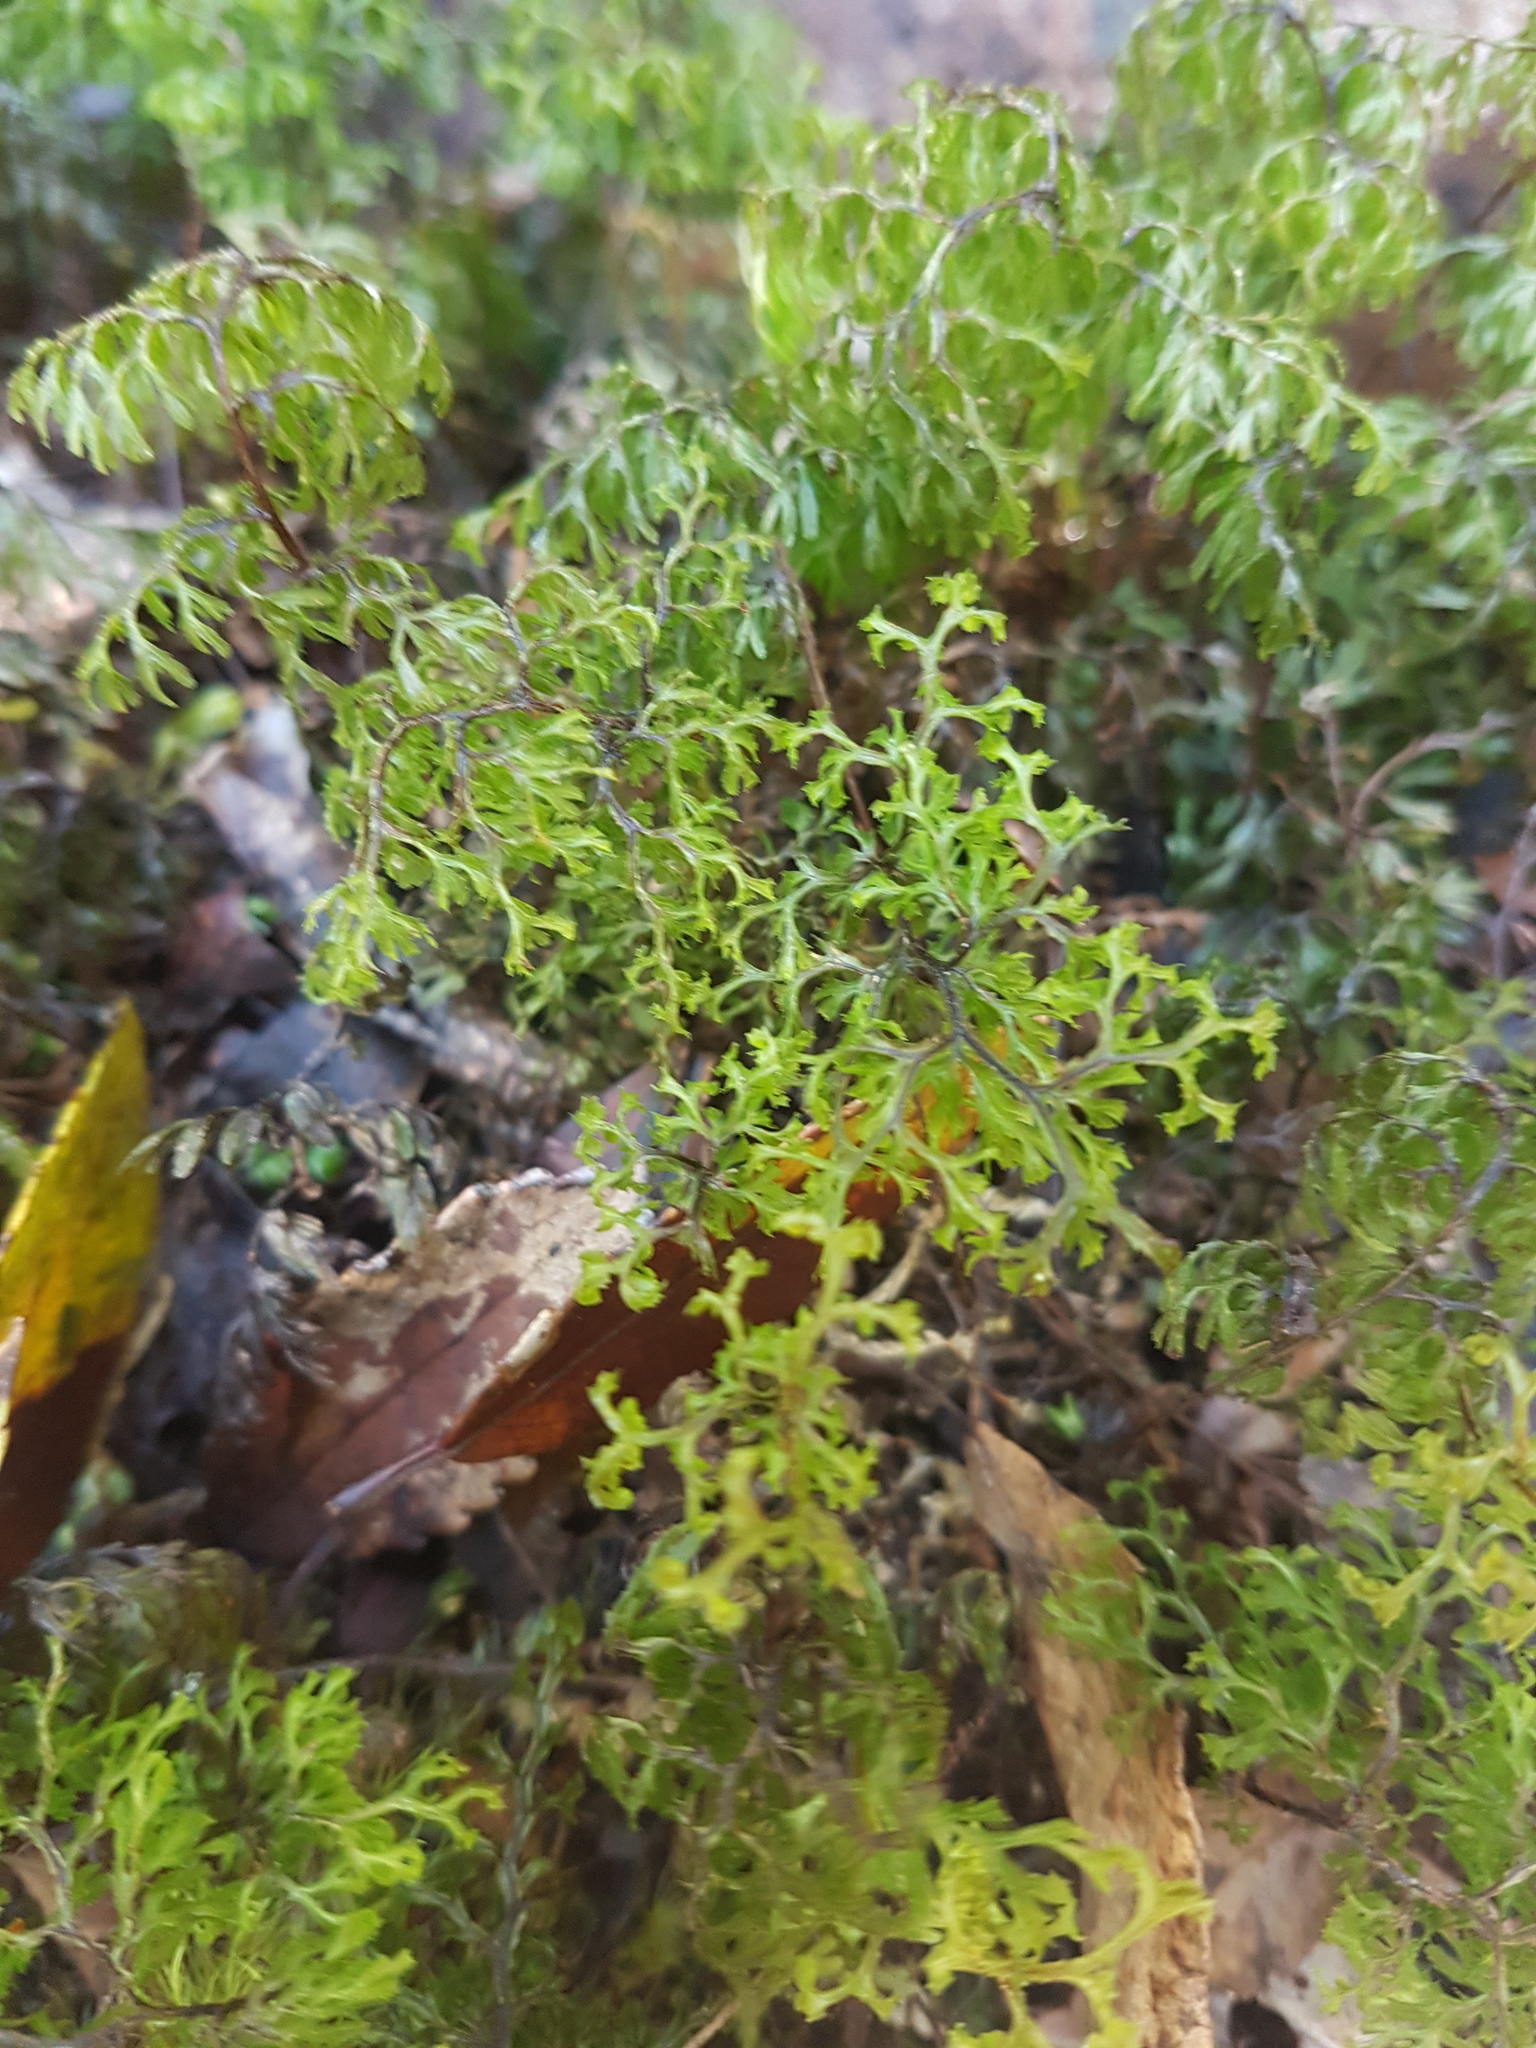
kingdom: Plantae
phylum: Tracheophyta
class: Polypodiopsida
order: Hymenophyllales
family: Hymenophyllaceae
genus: Hymenophyllum
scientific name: Hymenophyllum multifidum
